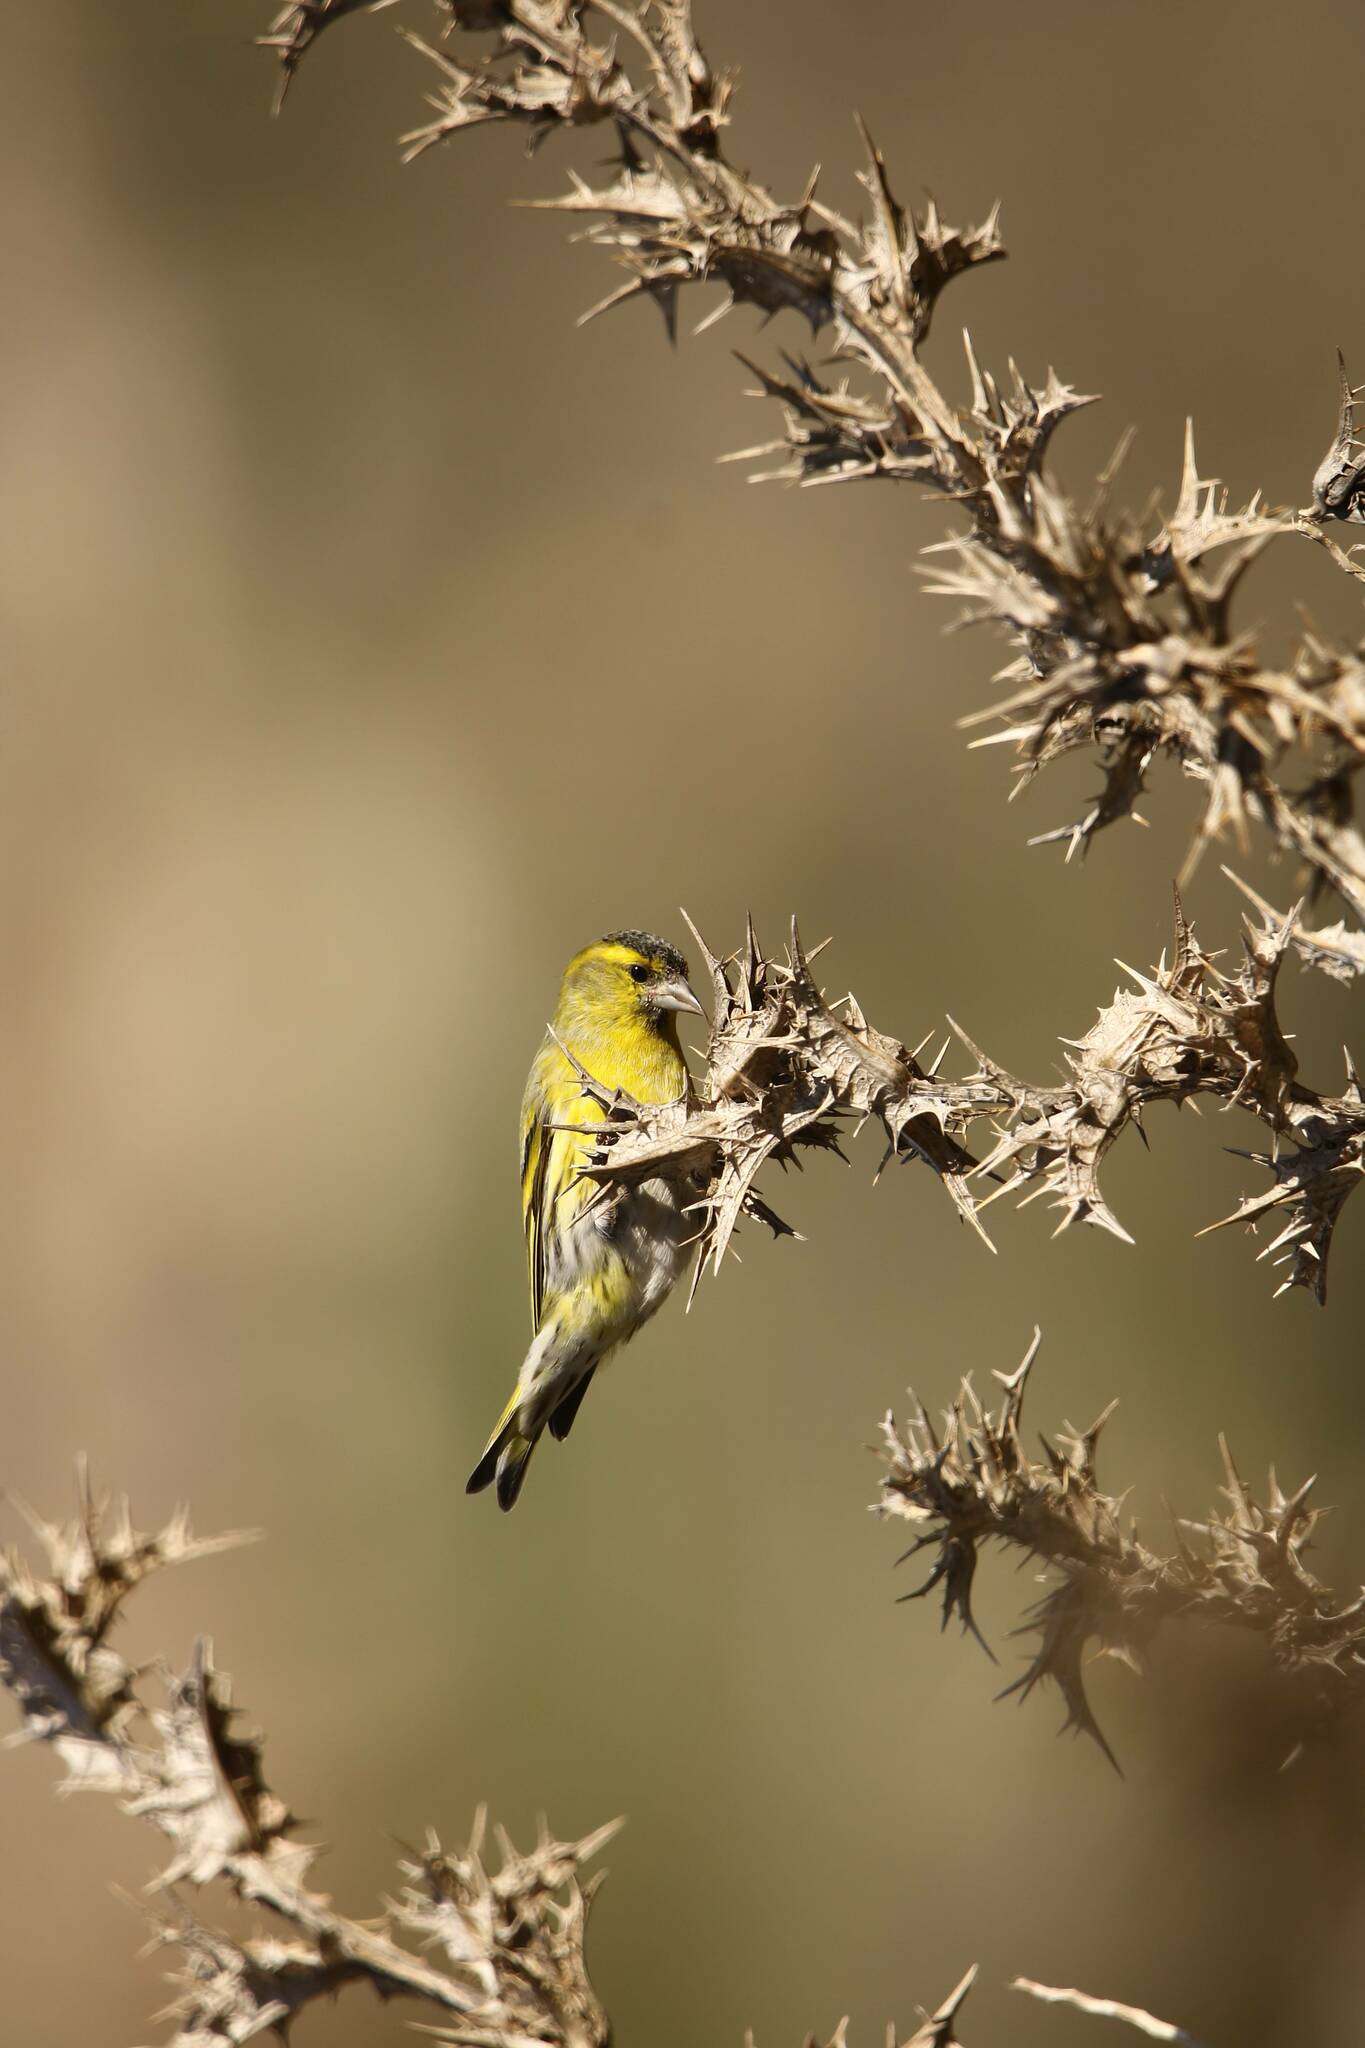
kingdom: Animalia
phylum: Chordata
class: Aves
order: Passeriformes
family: Fringillidae
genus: Spinus
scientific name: Spinus spinus
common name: Eurasian siskin
